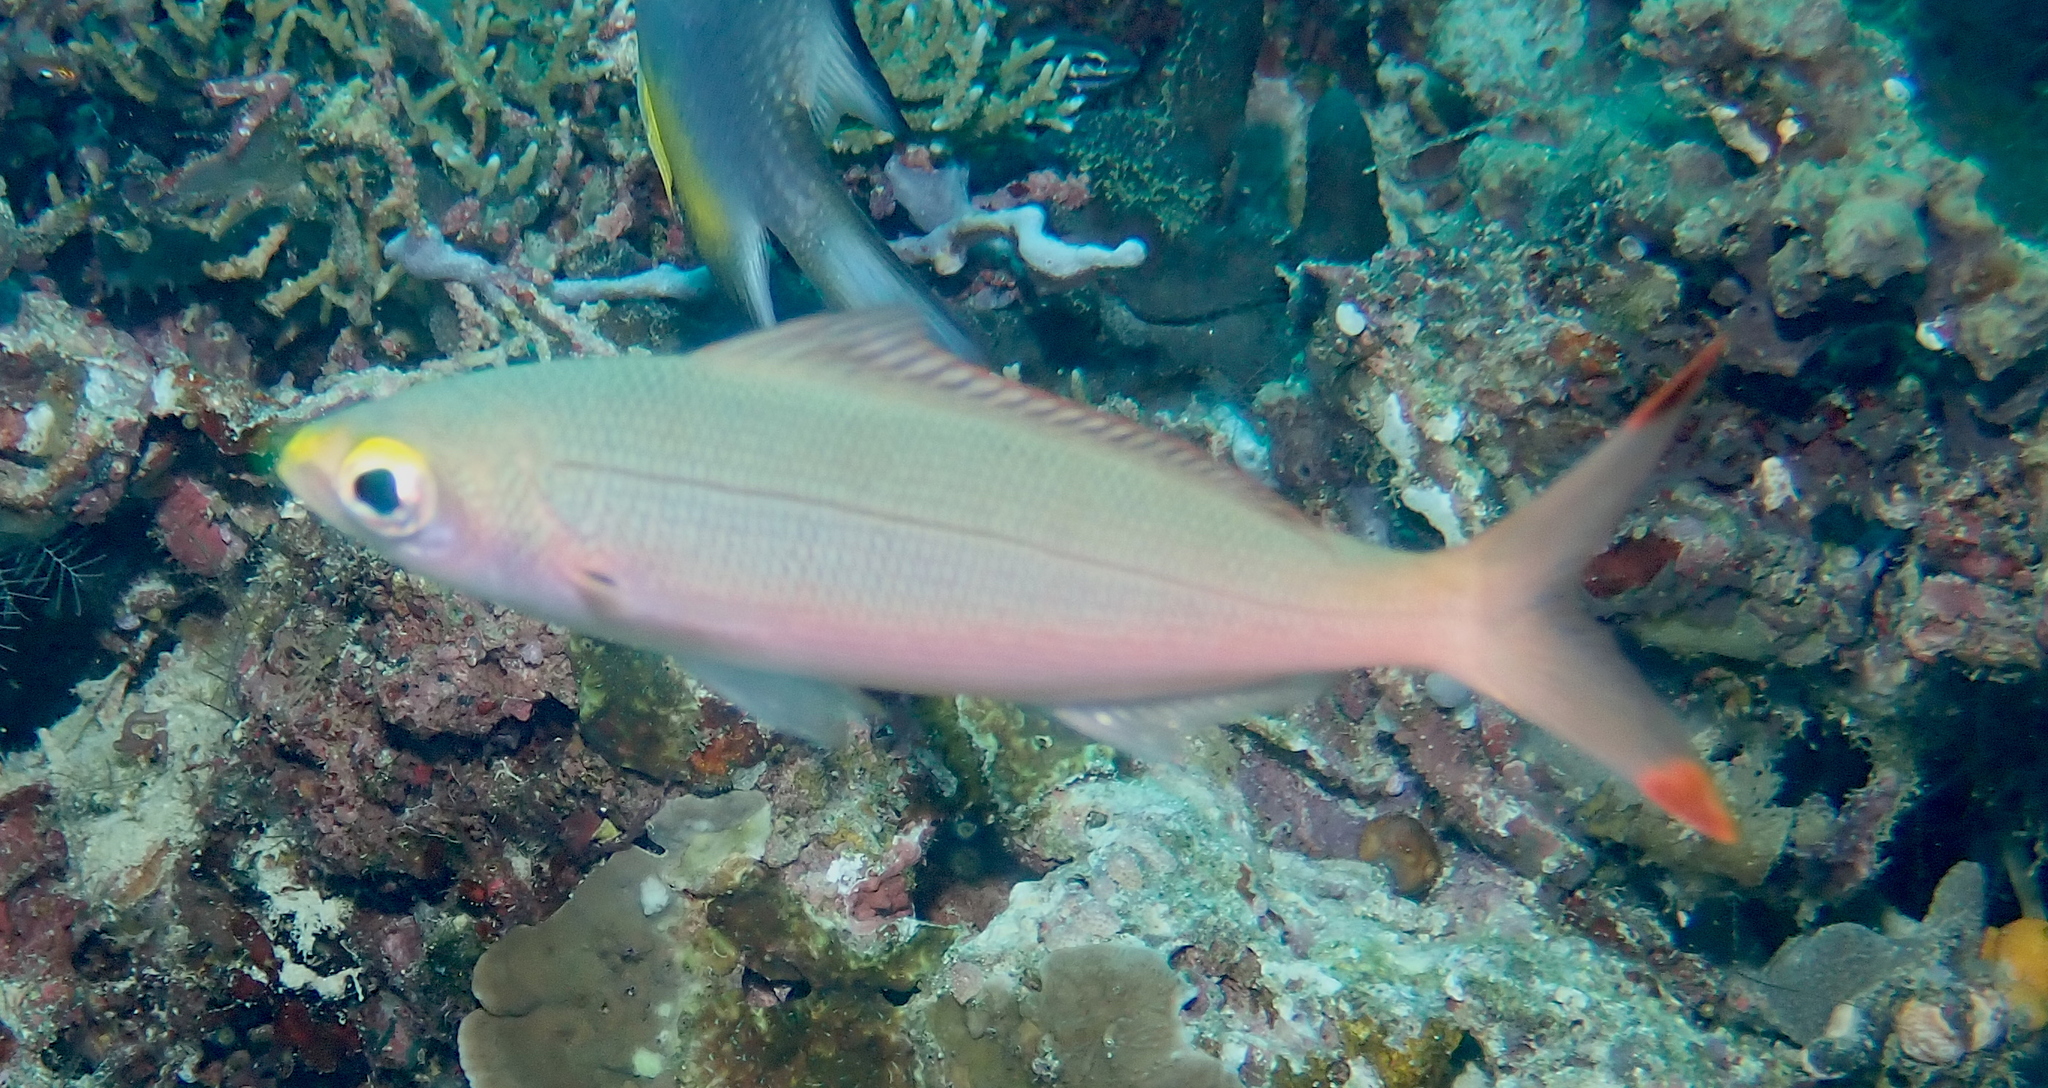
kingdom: Animalia
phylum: Chordata
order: Perciformes
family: Caesionidae
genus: Pterocaesio
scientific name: Pterocaesio pisang
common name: Banana fusilier
